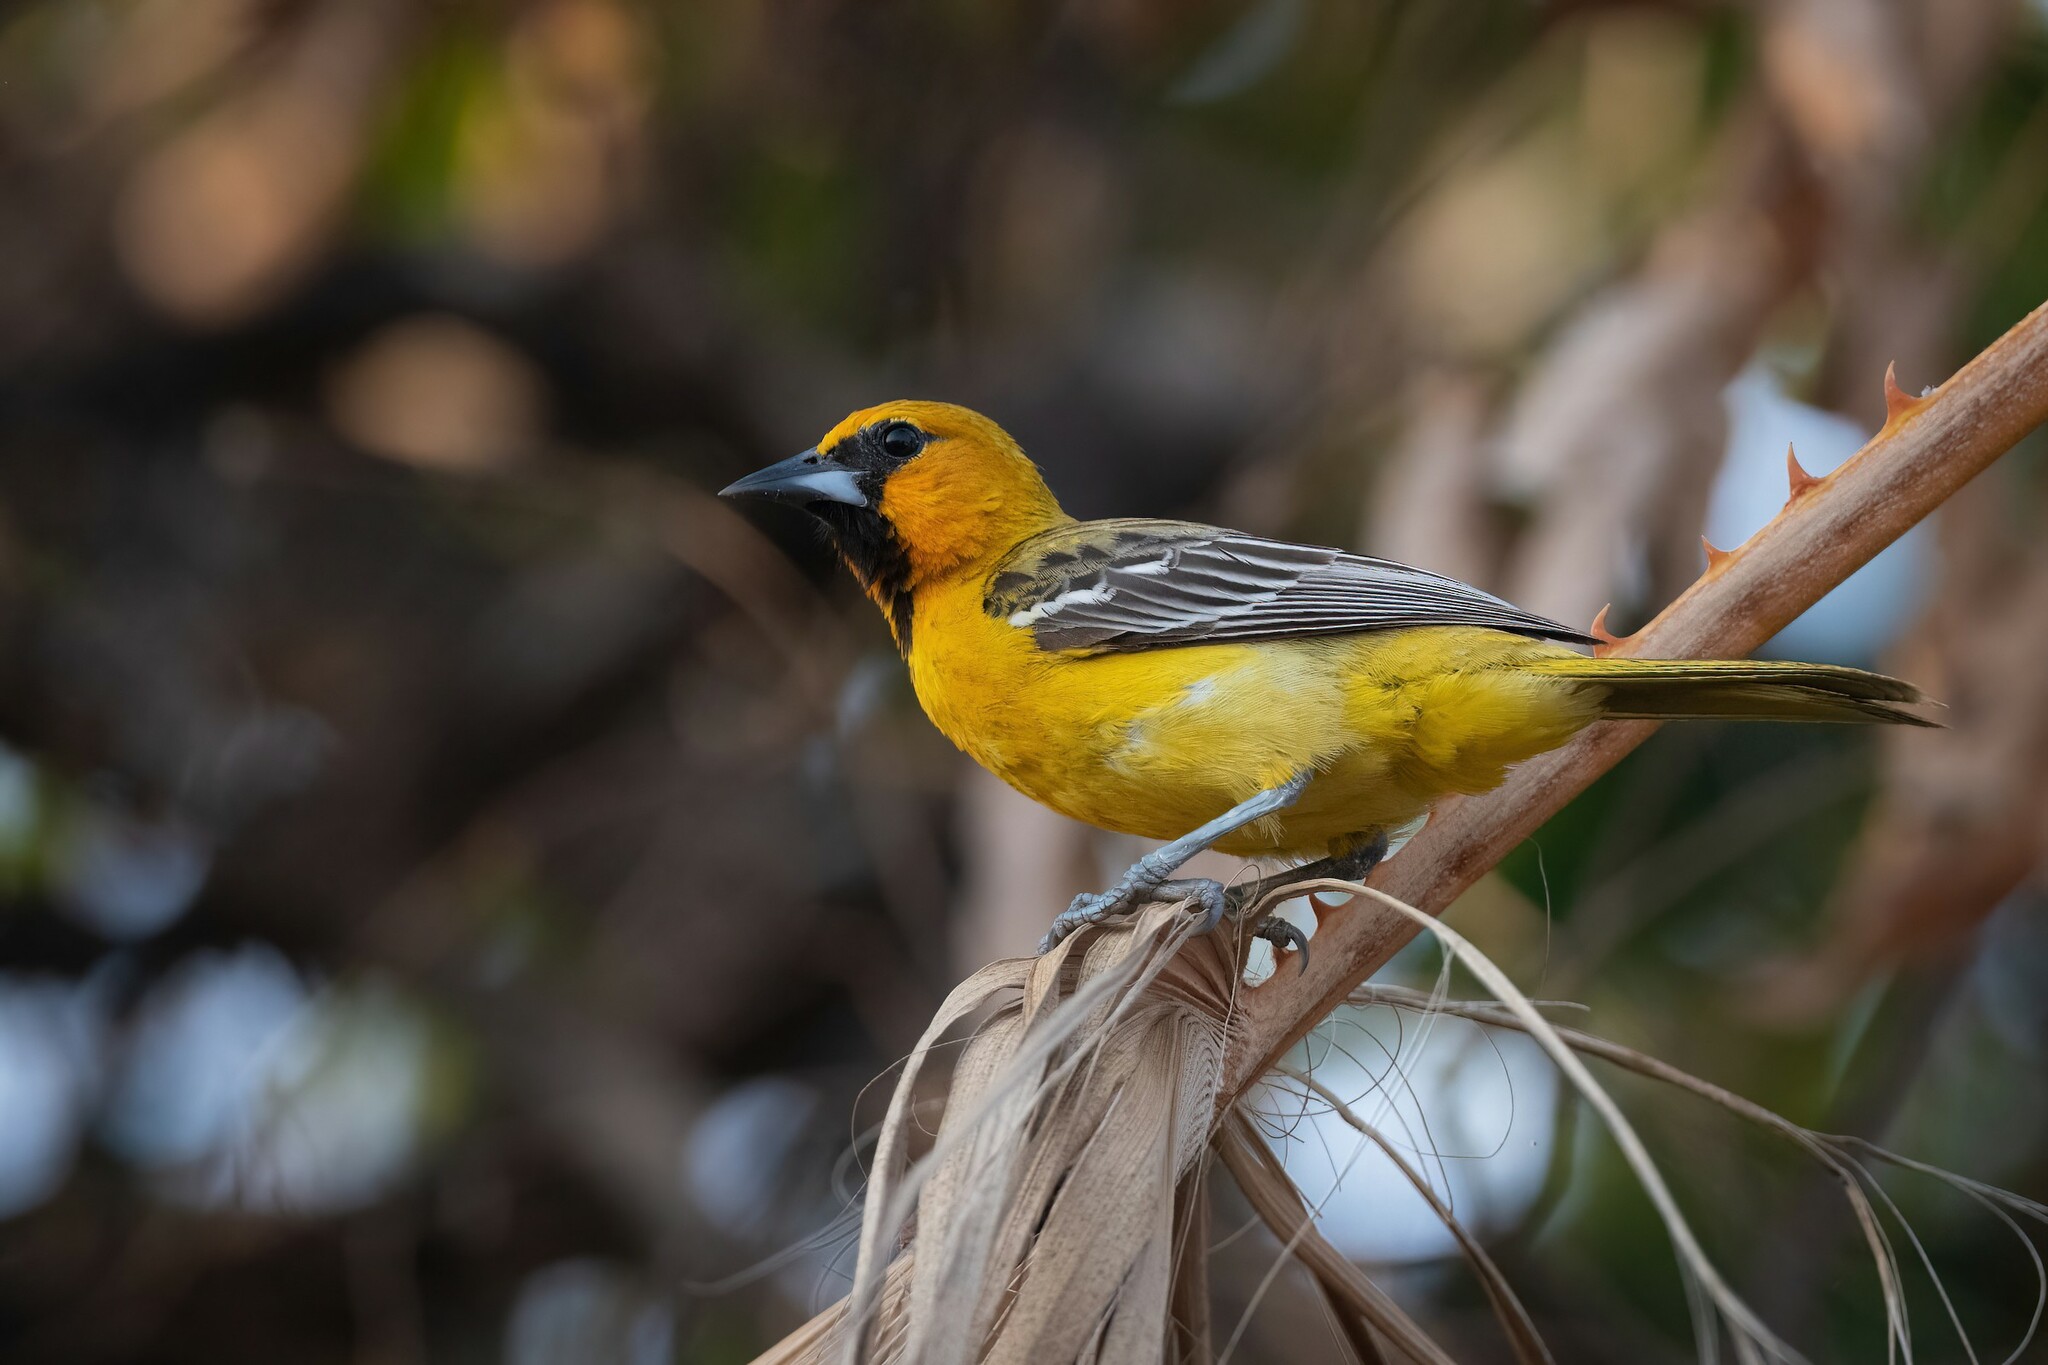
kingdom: Animalia
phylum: Chordata
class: Aves
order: Passeriformes
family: Icteridae
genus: Icterus
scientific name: Icterus pustulatus
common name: Streak-backed oriole
